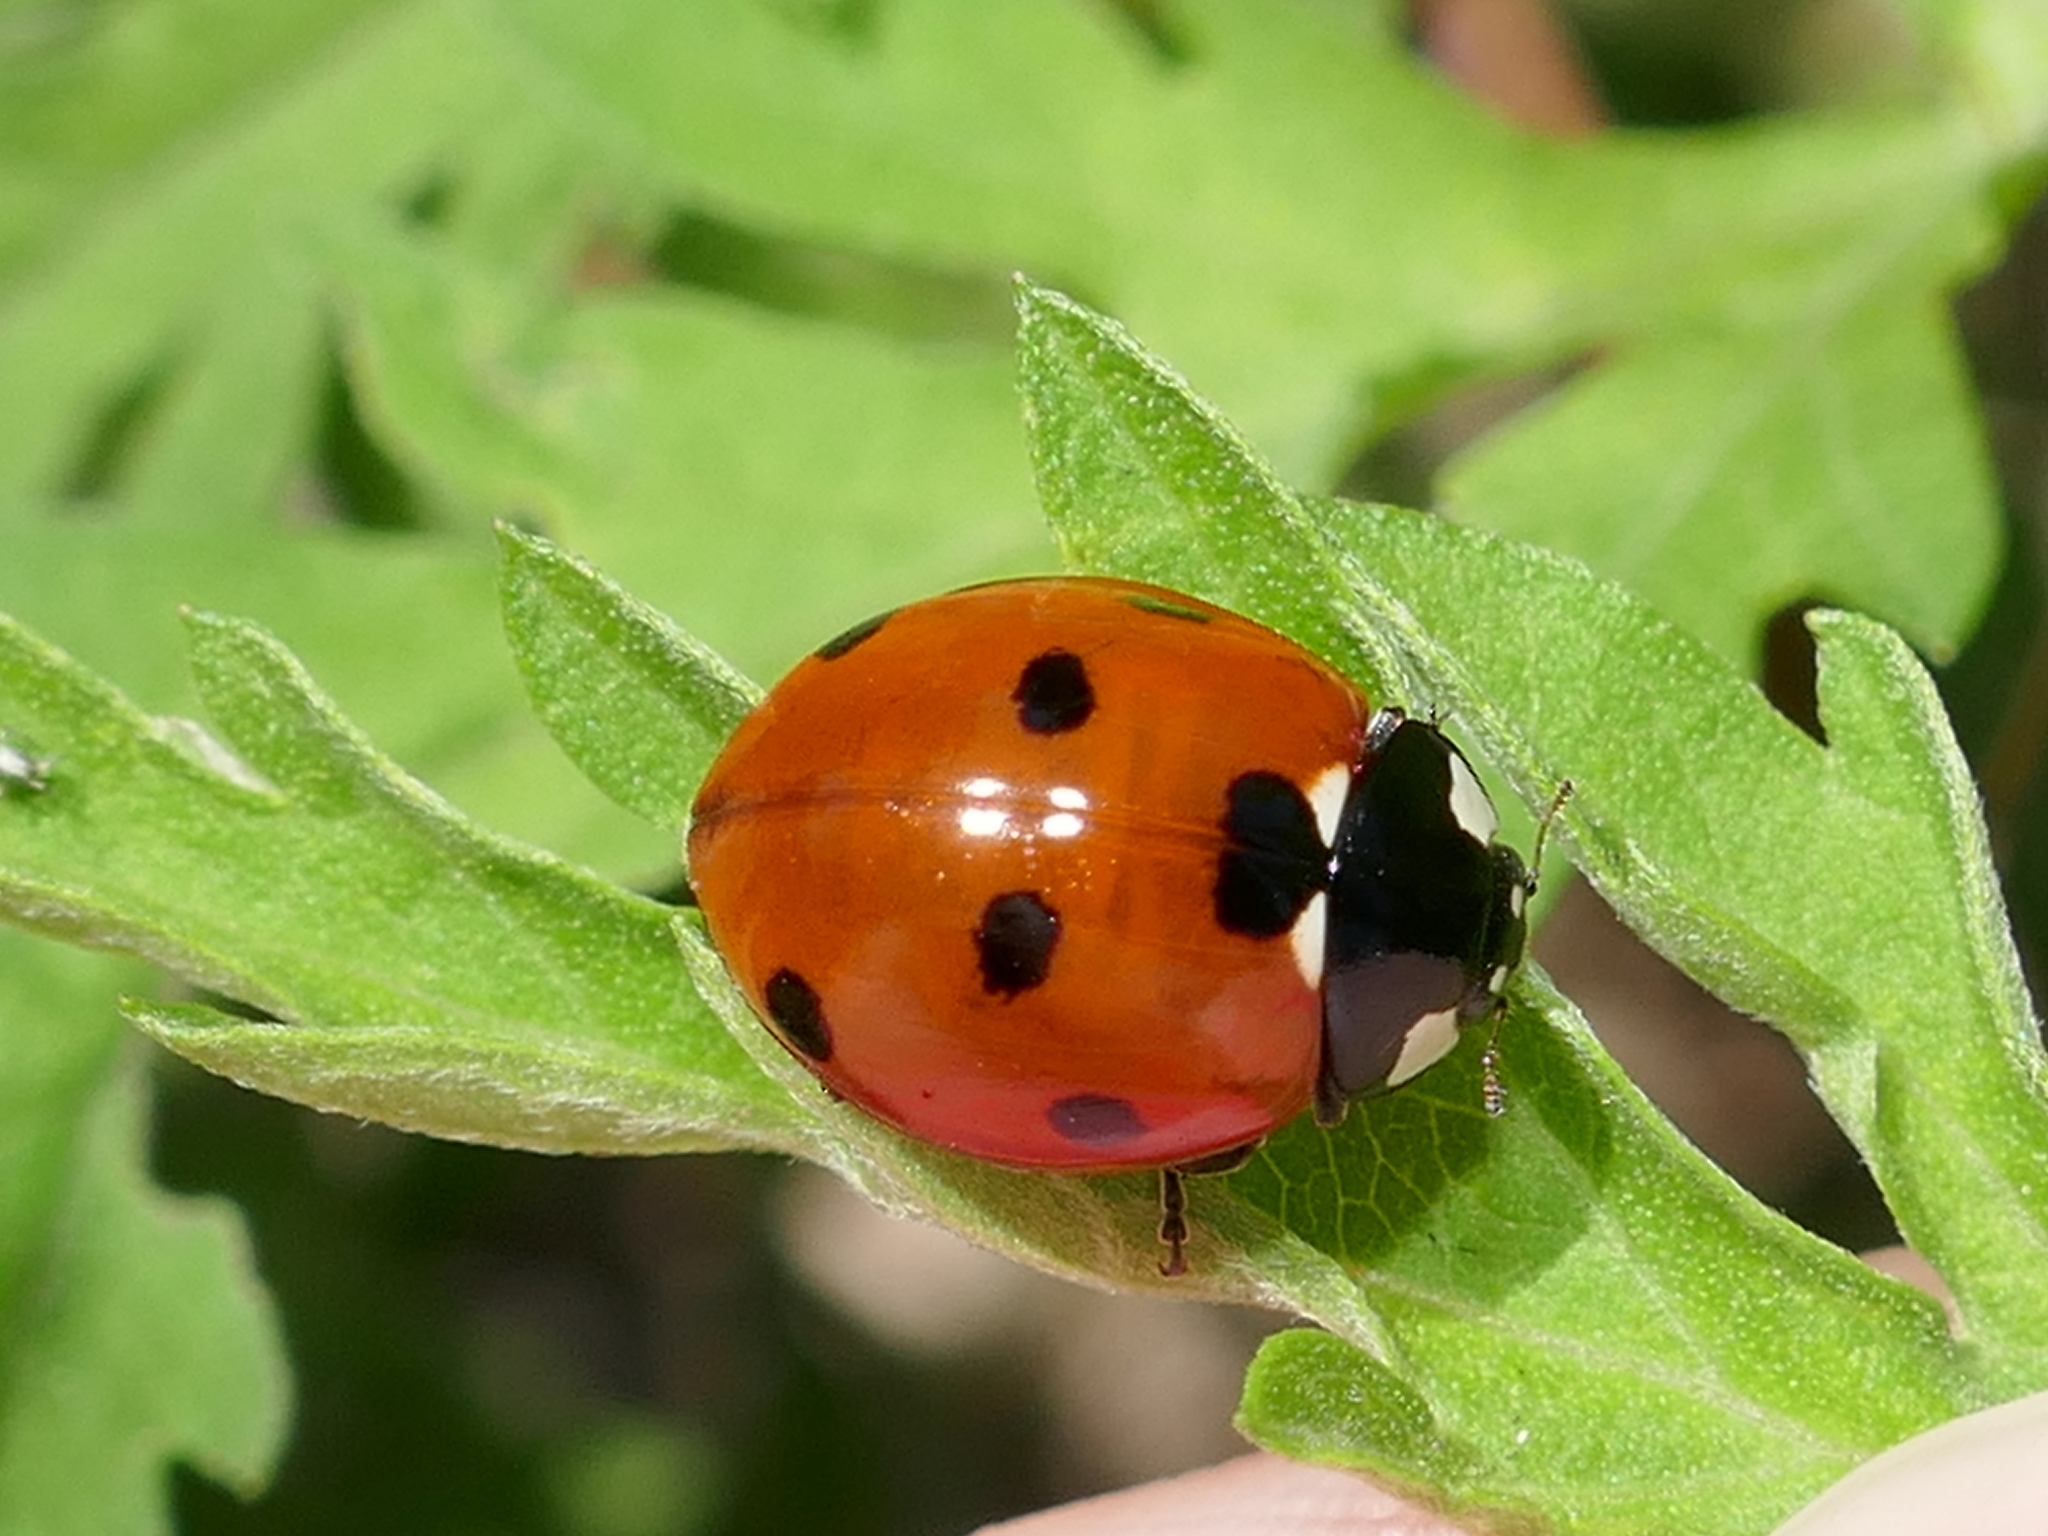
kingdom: Animalia
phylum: Arthropoda
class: Insecta
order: Coleoptera
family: Coccinellidae
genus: Coccinella
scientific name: Coccinella septempunctata
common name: Sevenspotted lady beetle
